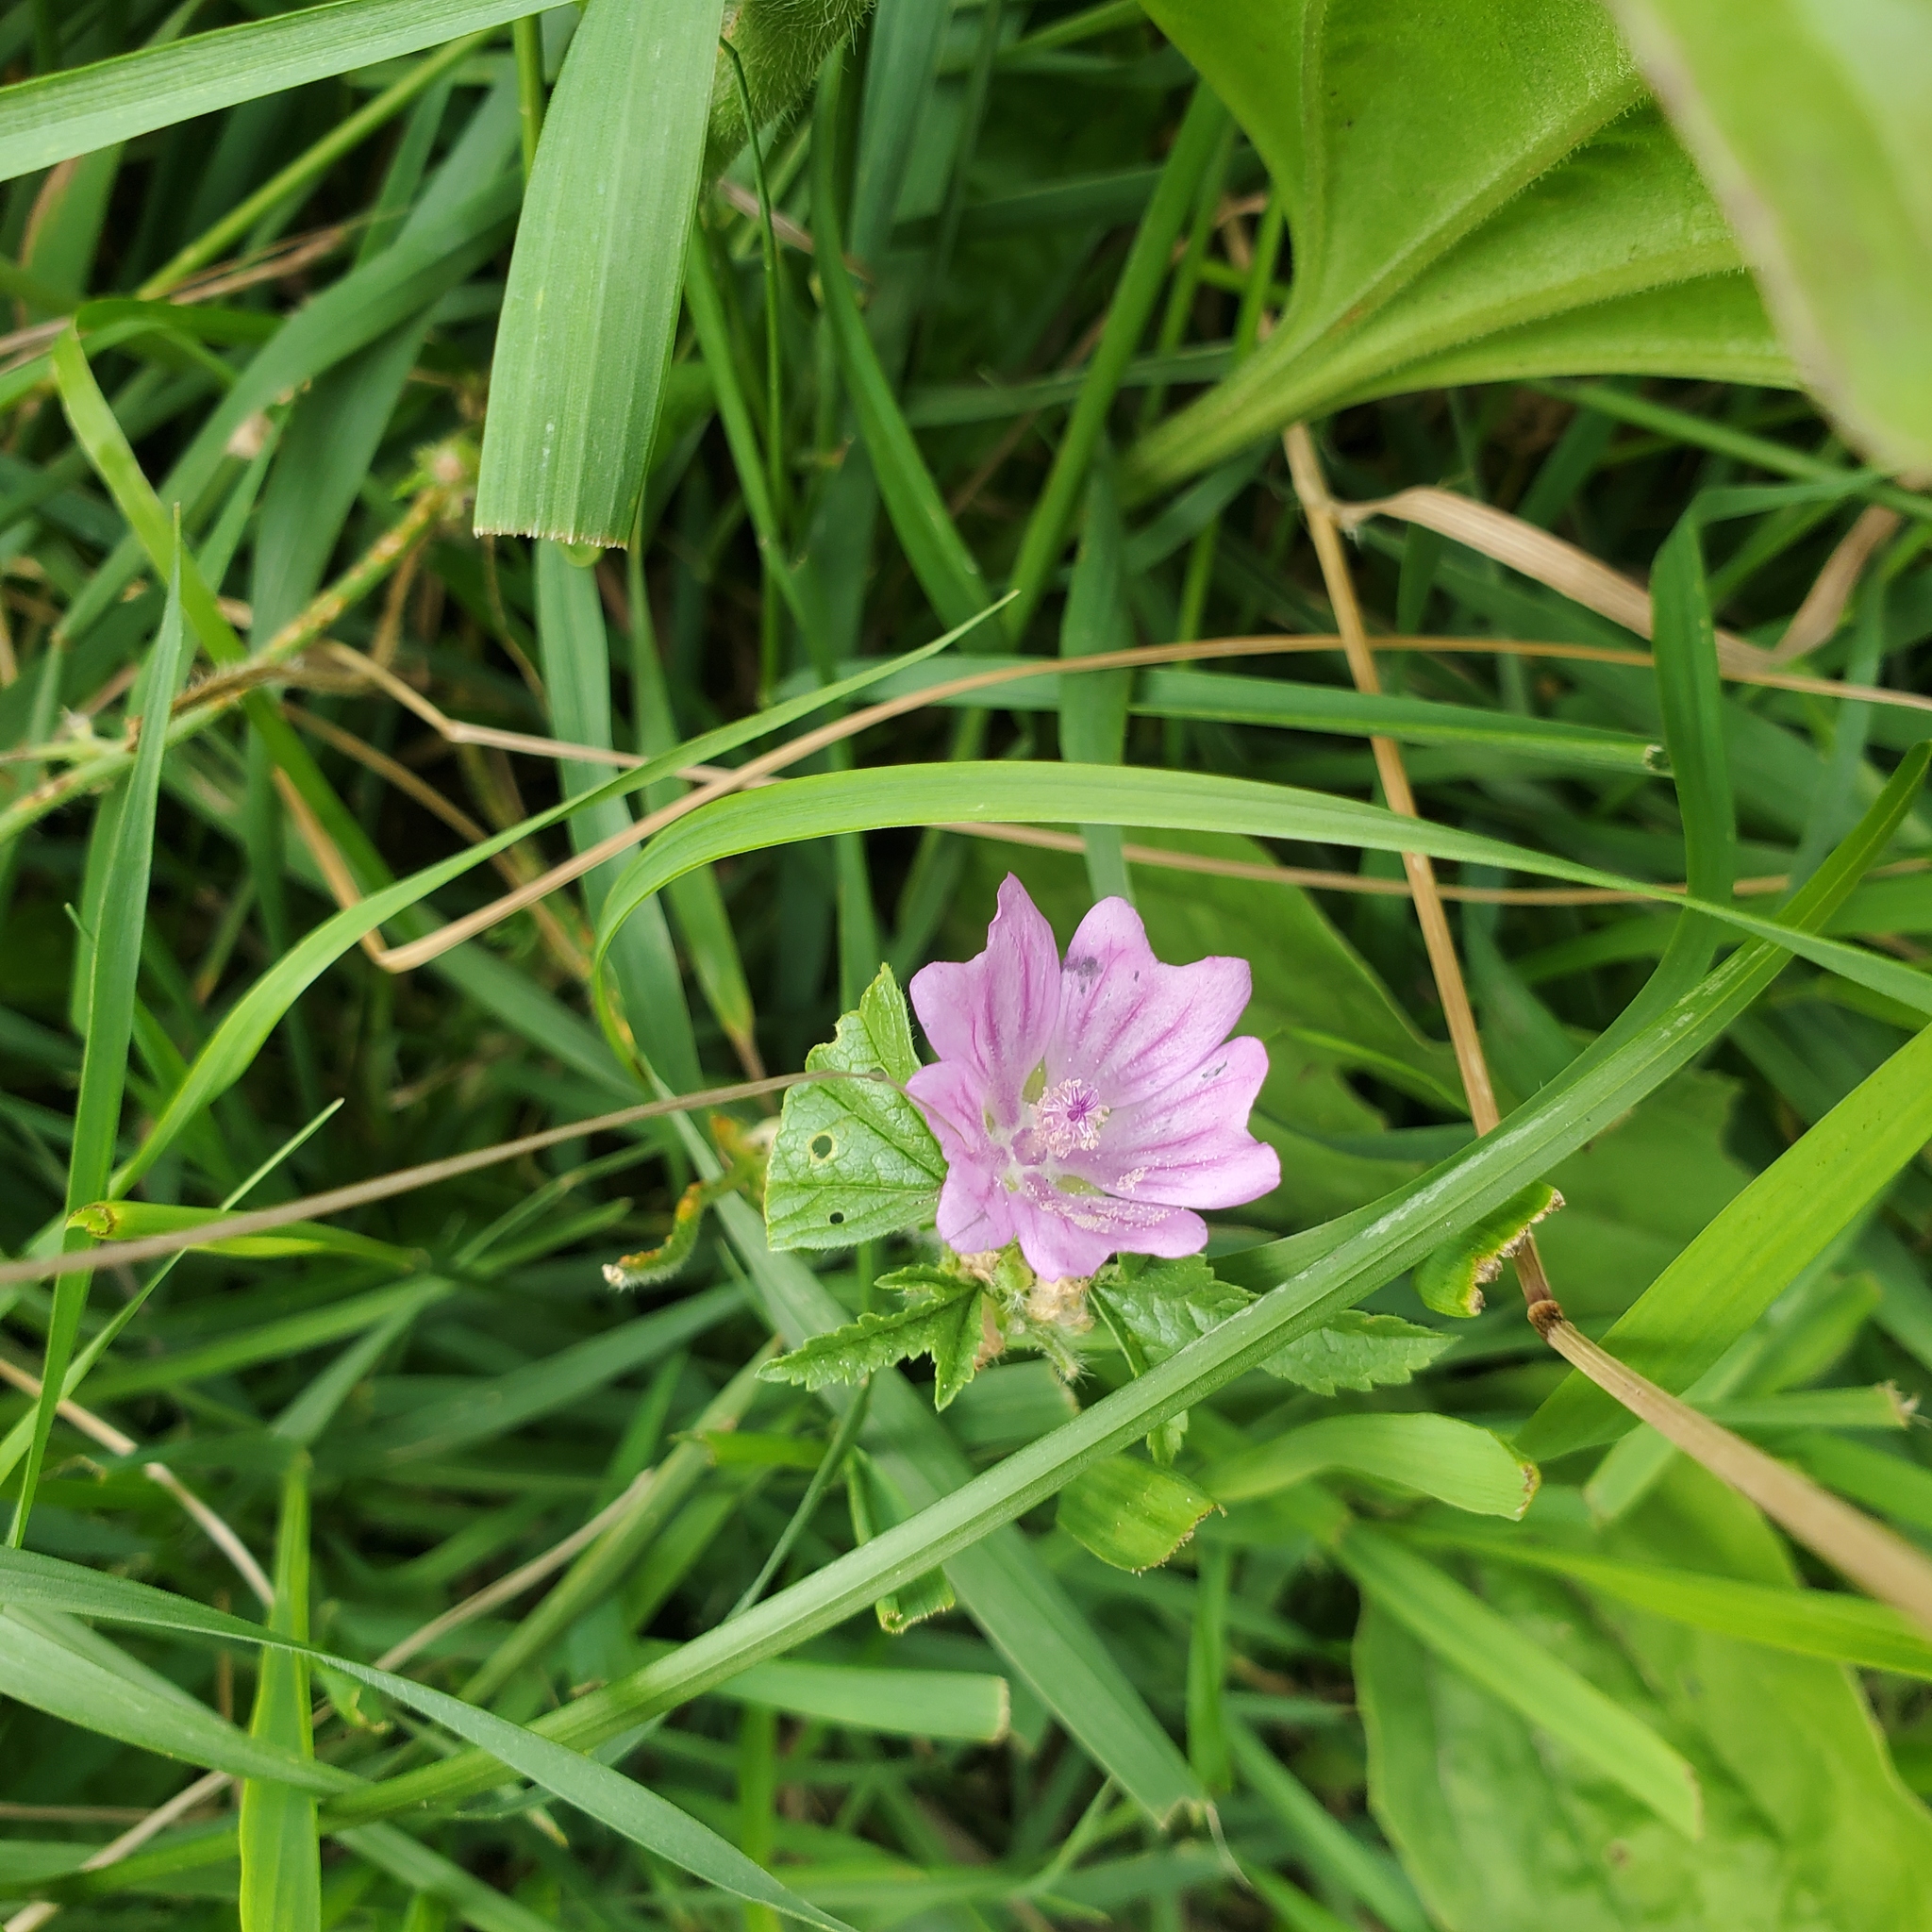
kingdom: Plantae
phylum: Tracheophyta
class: Magnoliopsida
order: Malvales
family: Malvaceae
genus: Malva
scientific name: Malva sylvestris
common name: Common mallow
